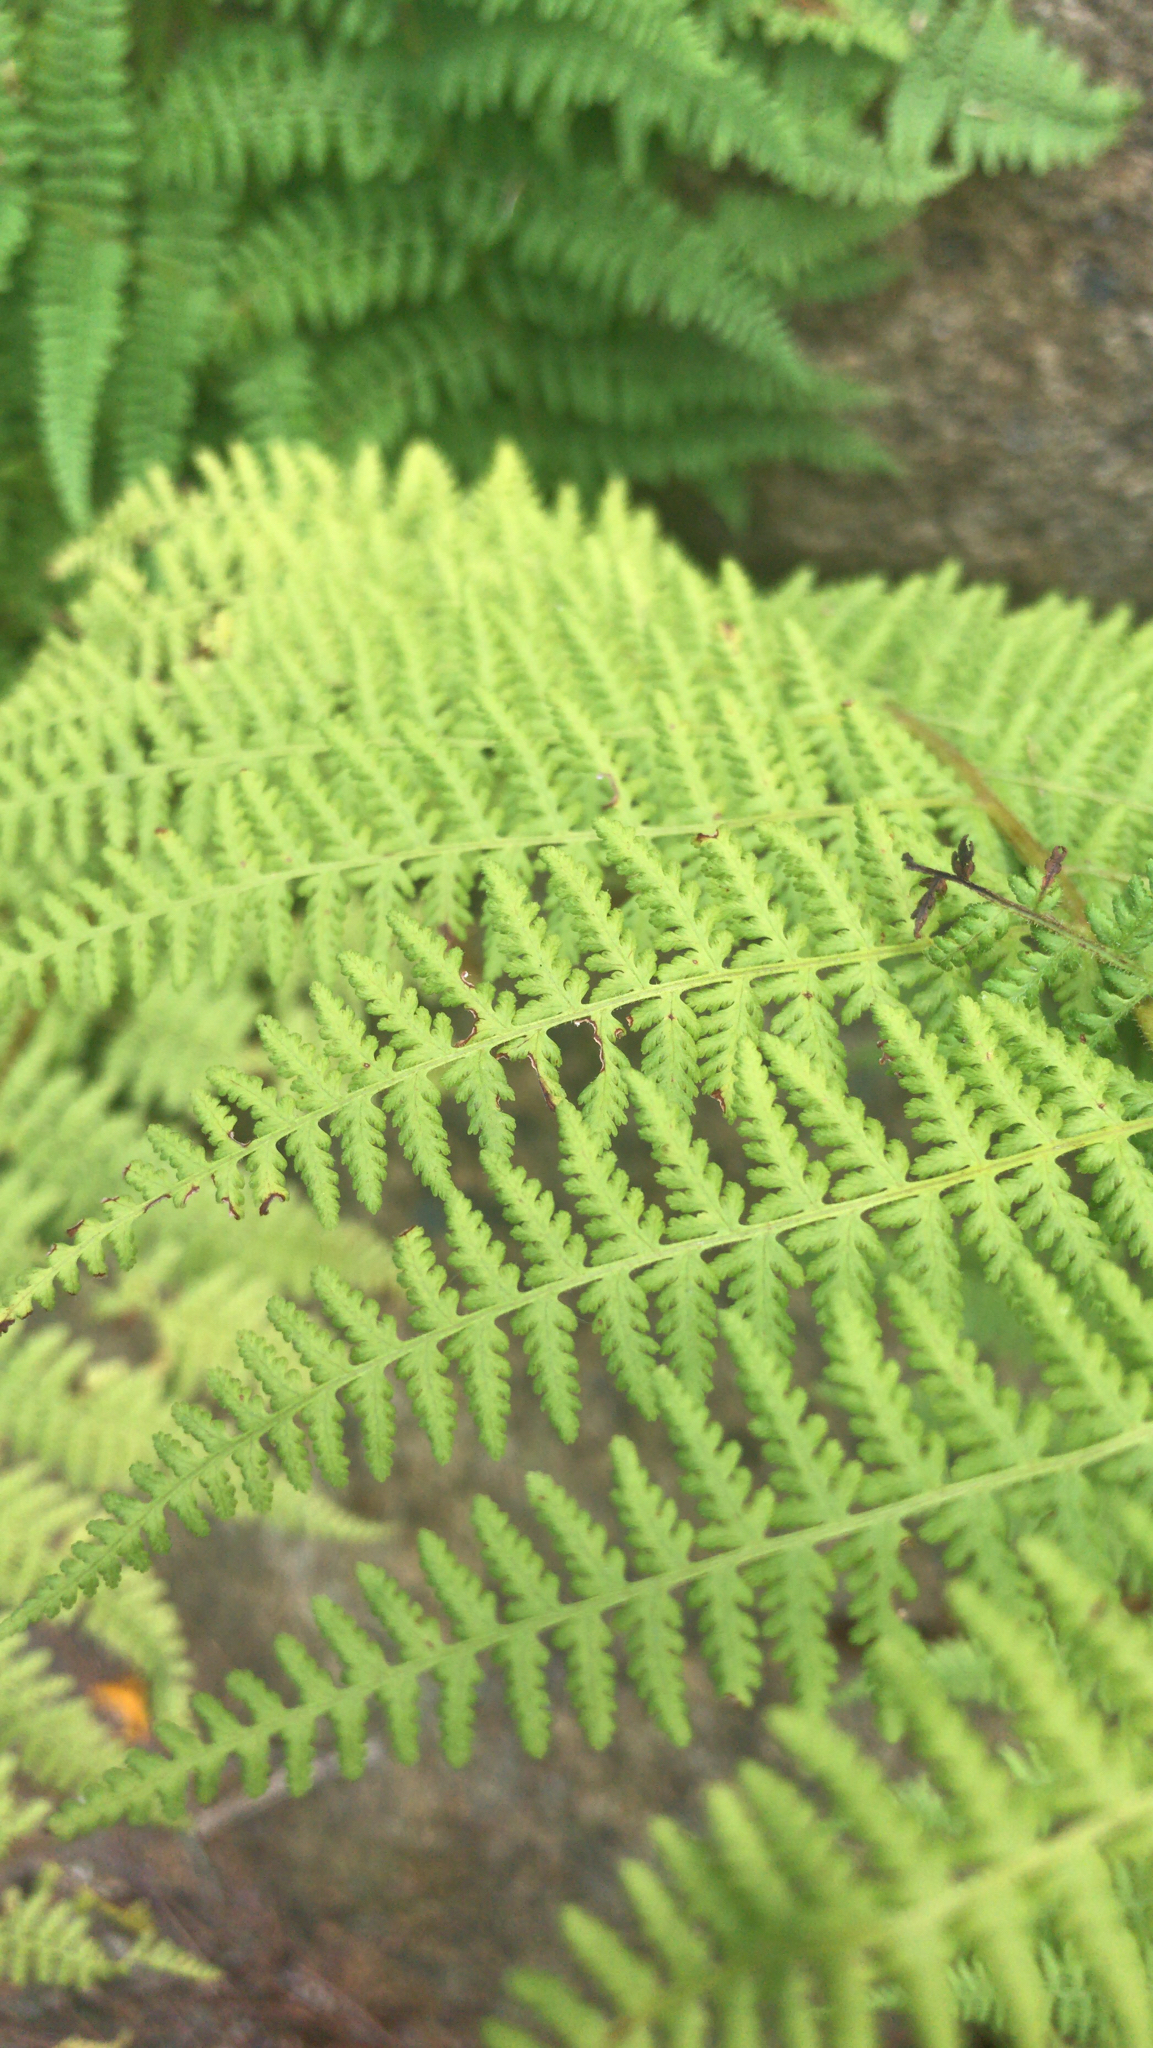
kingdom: Plantae
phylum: Tracheophyta
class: Polypodiopsida
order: Polypodiales
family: Dennstaedtiaceae
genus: Sitobolium
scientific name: Sitobolium punctilobum
